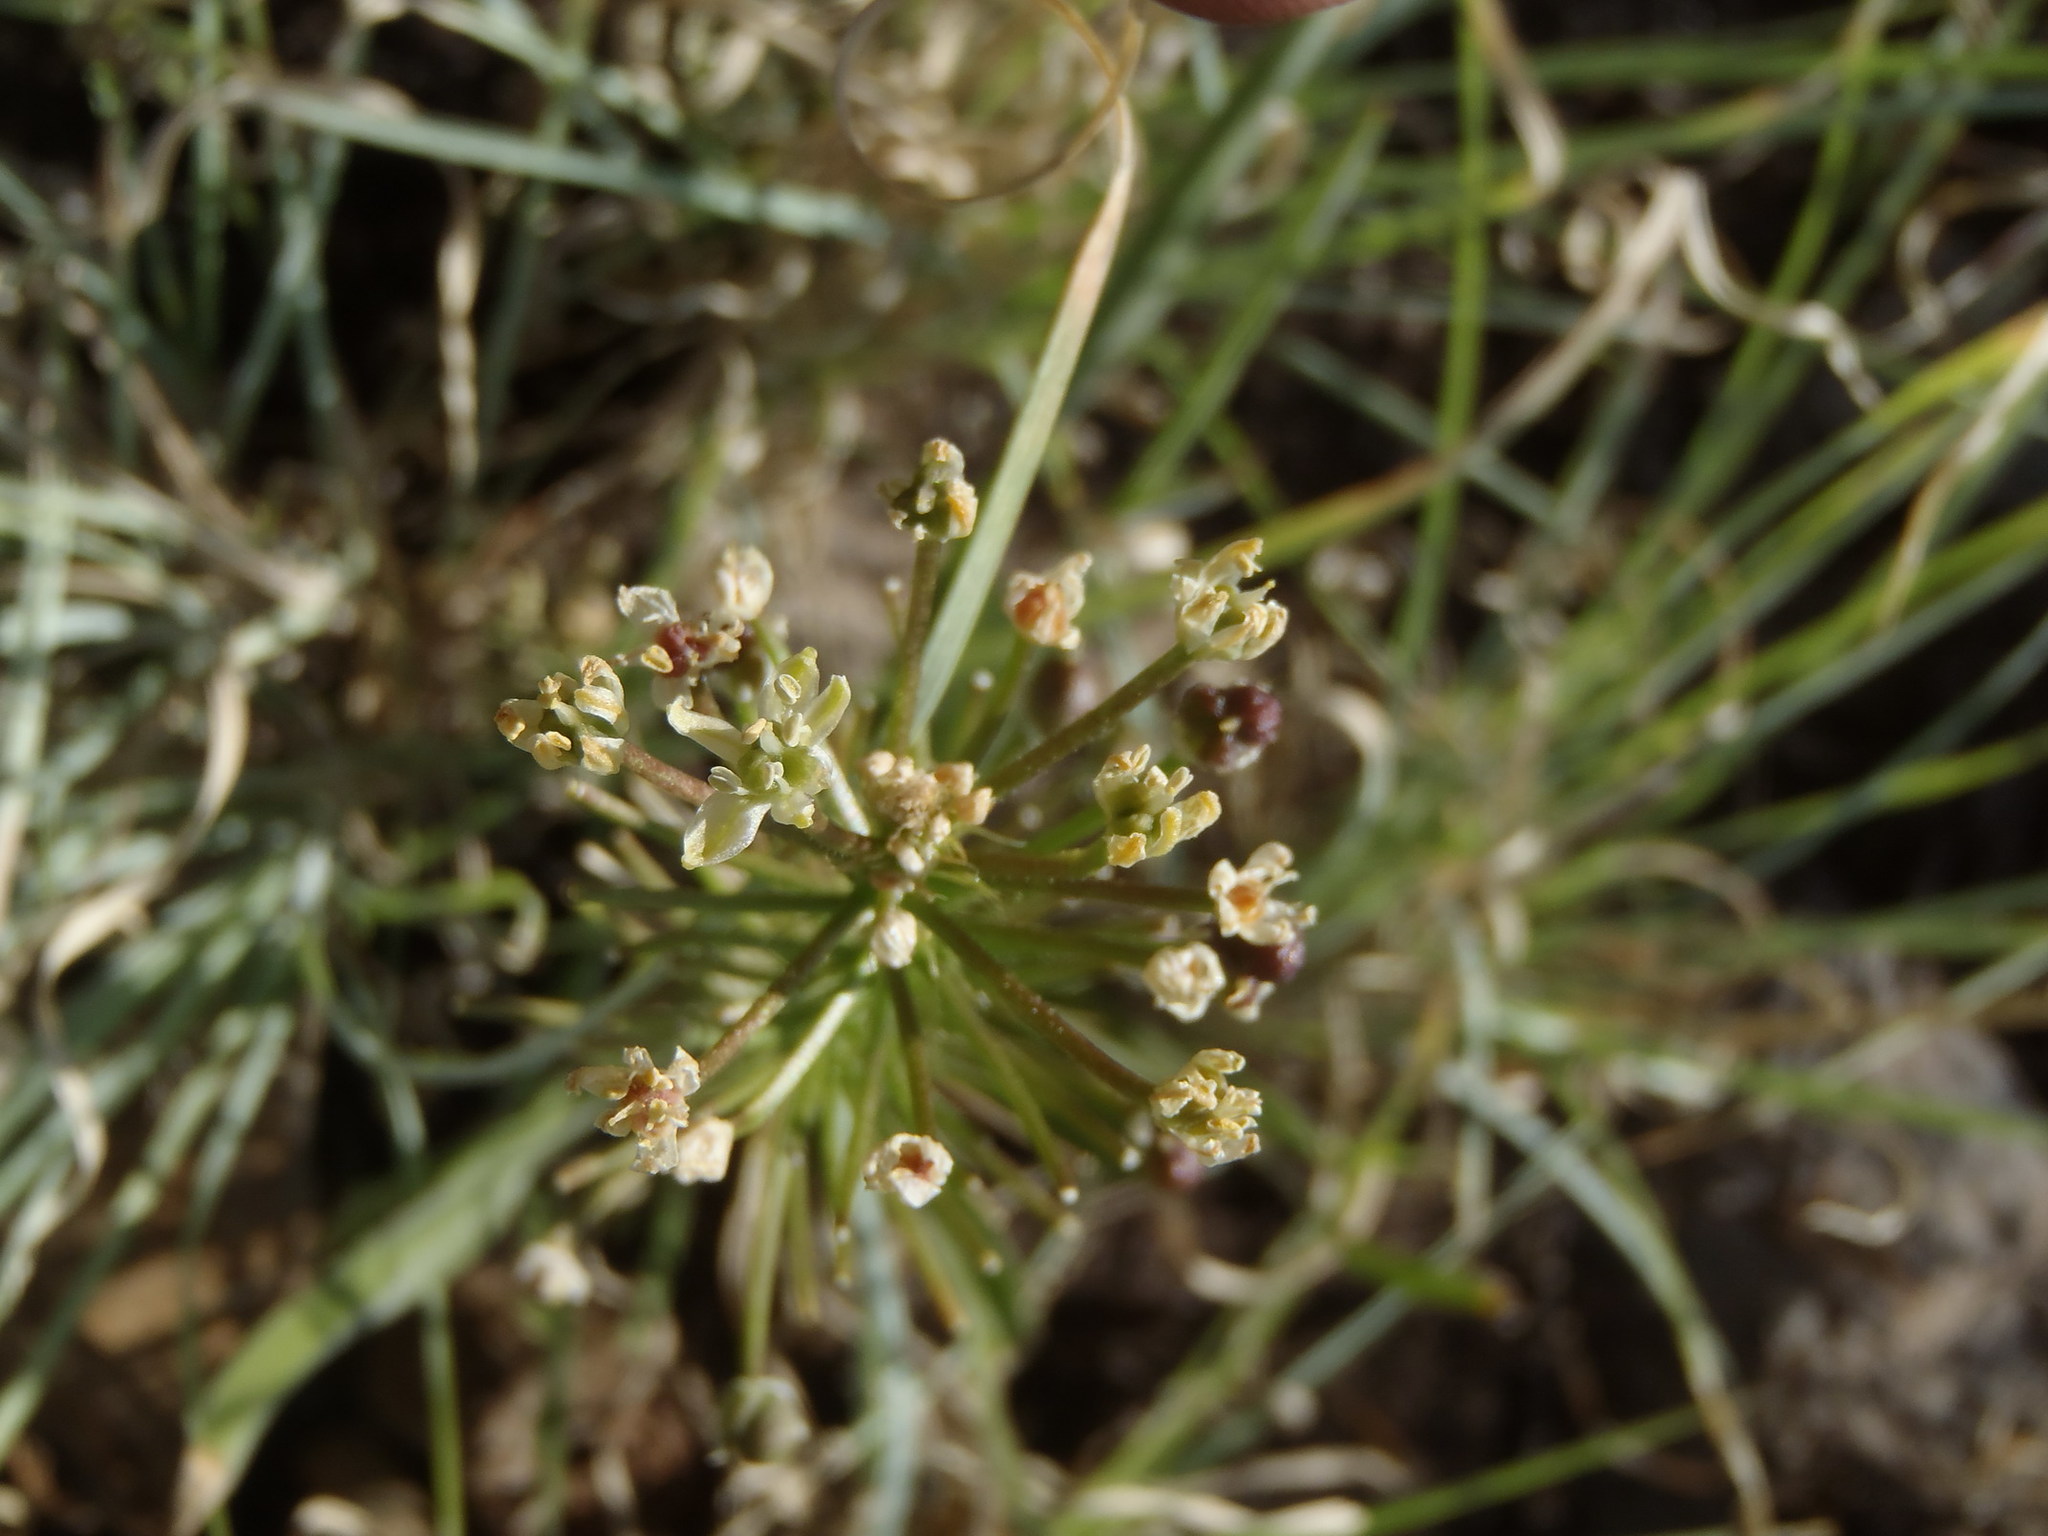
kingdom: Plantae
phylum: Tracheophyta
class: Liliopsida
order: Asparagales
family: Asparagaceae
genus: Schizocarphus
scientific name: Schizocarphus nervosus
